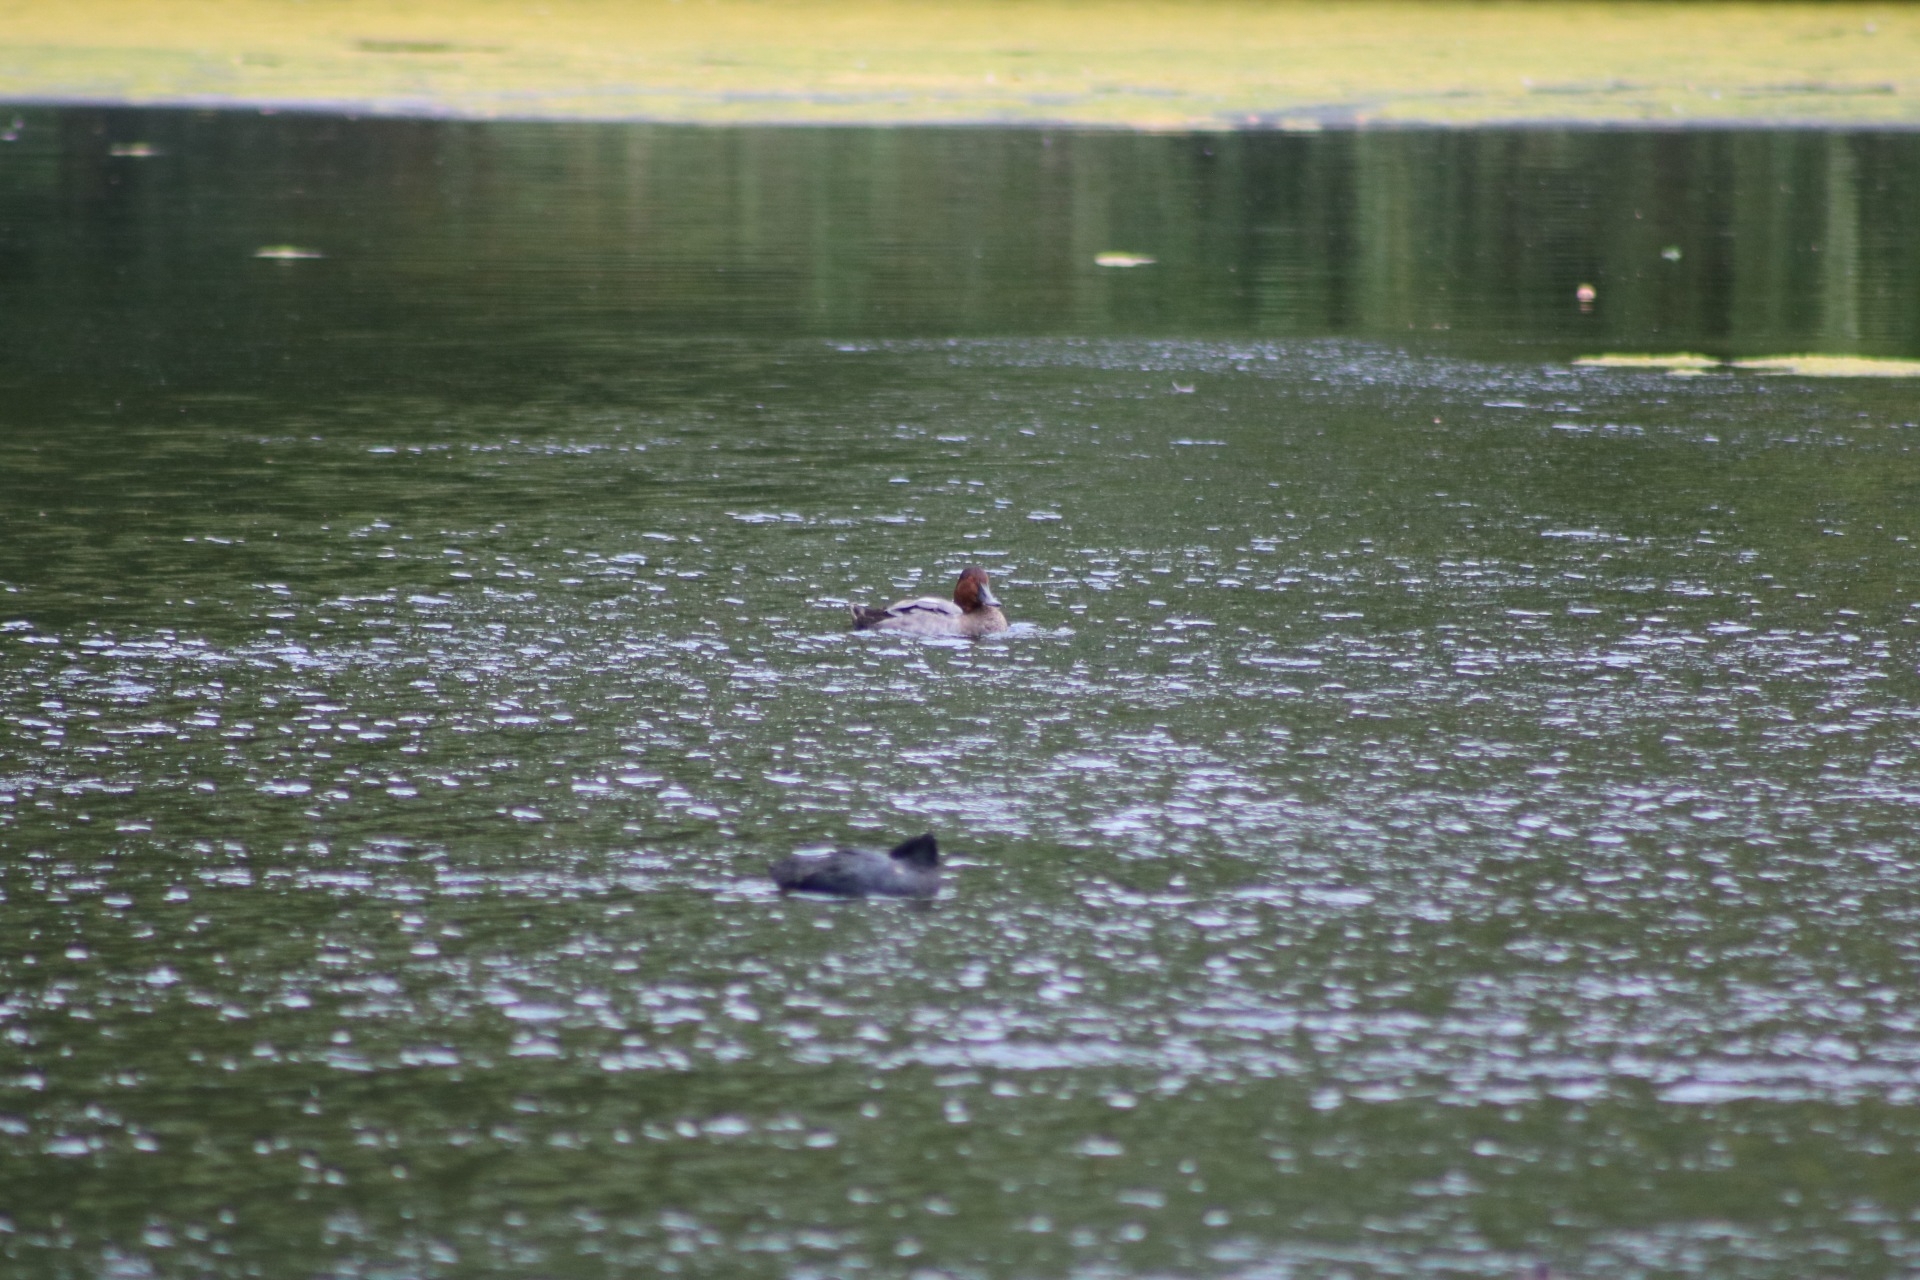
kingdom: Animalia
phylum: Chordata
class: Aves
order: Anseriformes
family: Anatidae
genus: Aythya
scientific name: Aythya ferina
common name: Common pochard
